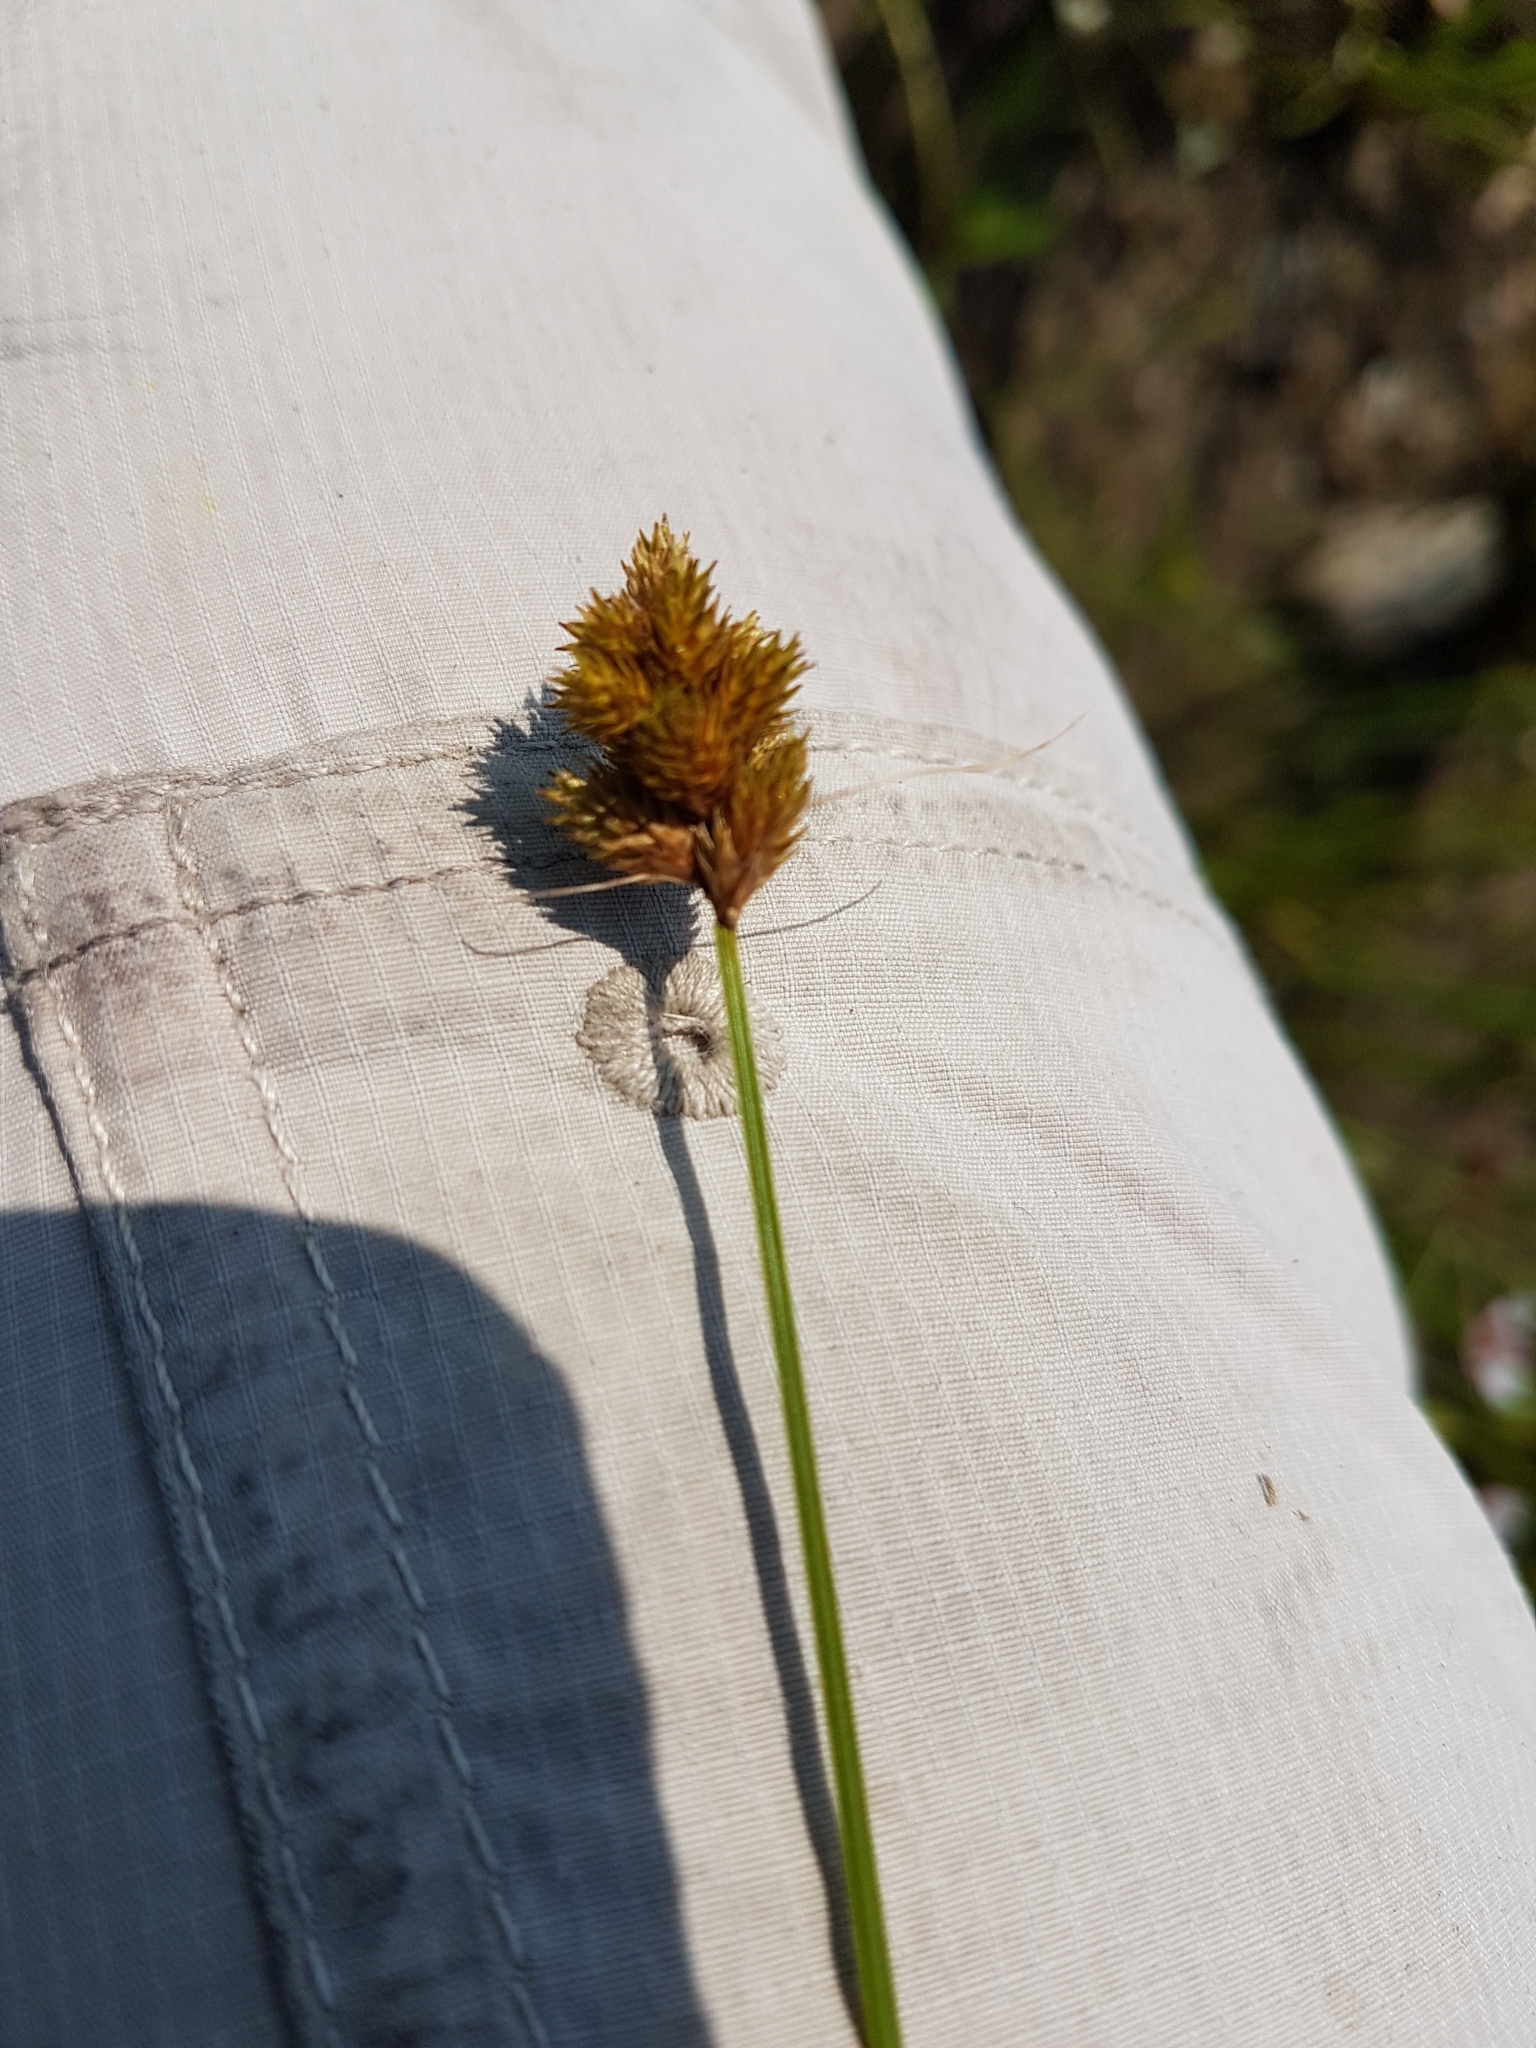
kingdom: Plantae
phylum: Tracheophyta
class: Liliopsida
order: Poales
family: Cyperaceae
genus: Carex
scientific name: Carex bebbii
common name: Bebb's sedge
